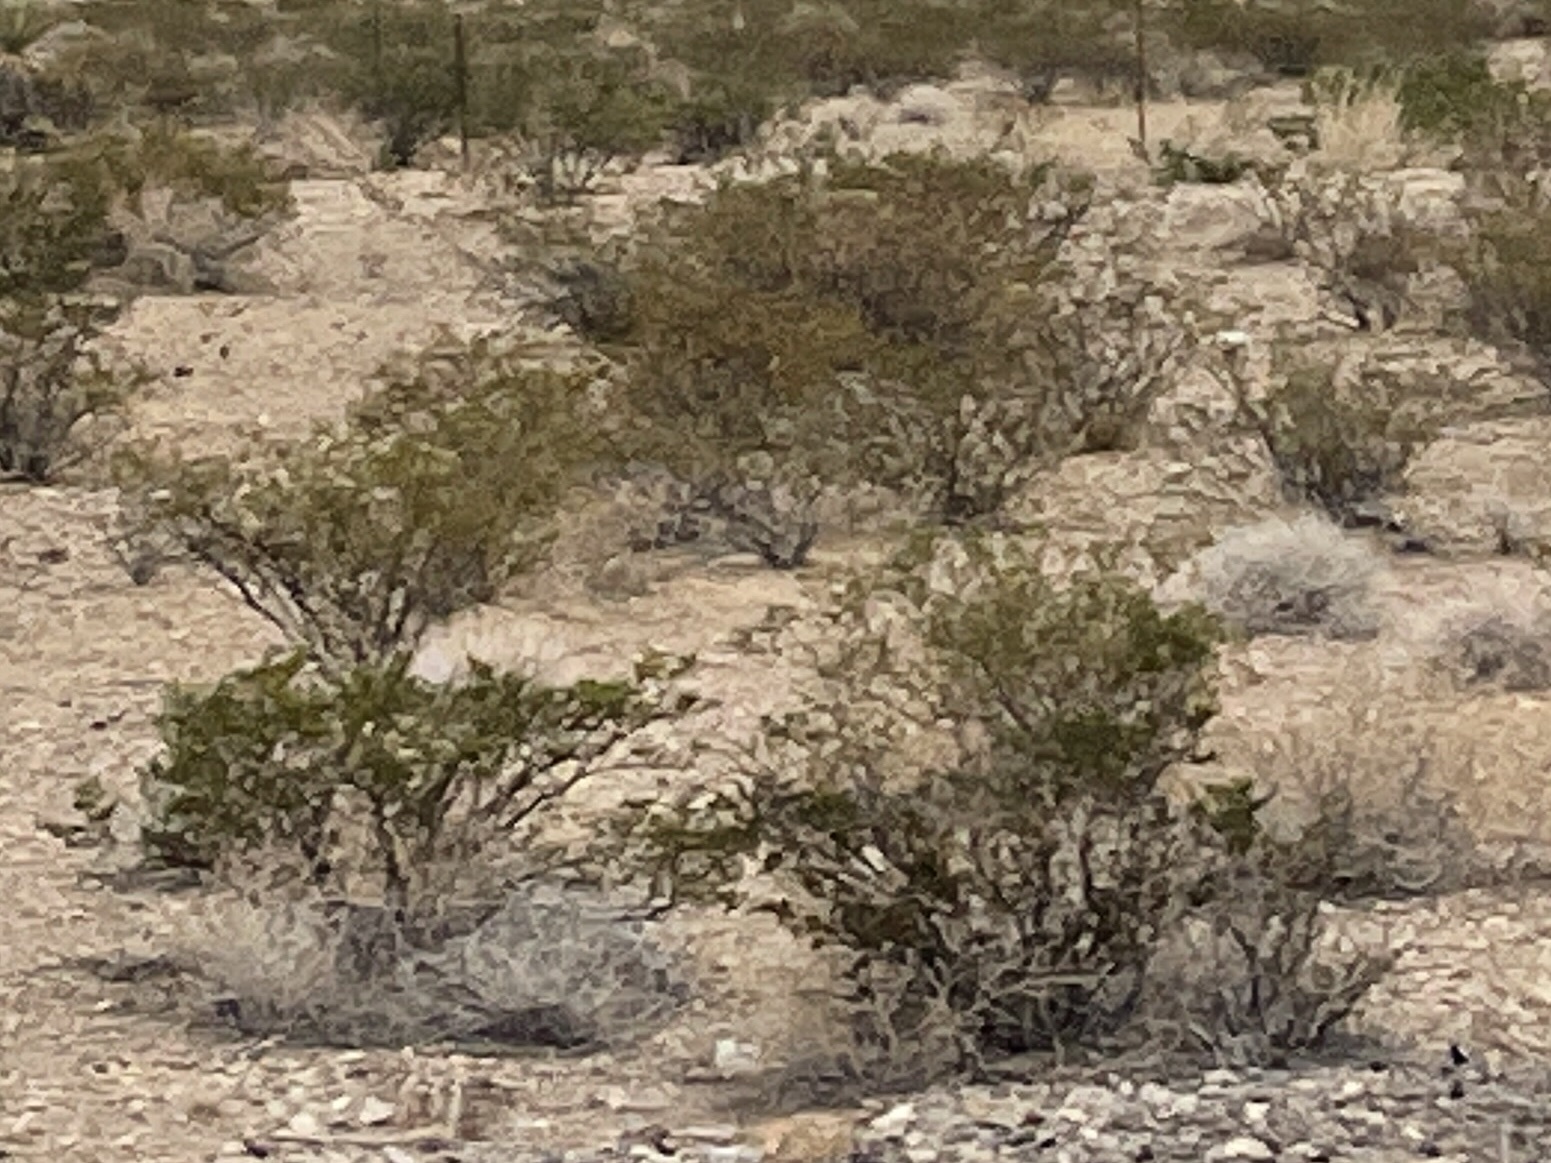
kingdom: Plantae
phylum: Tracheophyta
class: Magnoliopsida
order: Zygophyllales
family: Zygophyllaceae
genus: Larrea
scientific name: Larrea tridentata
